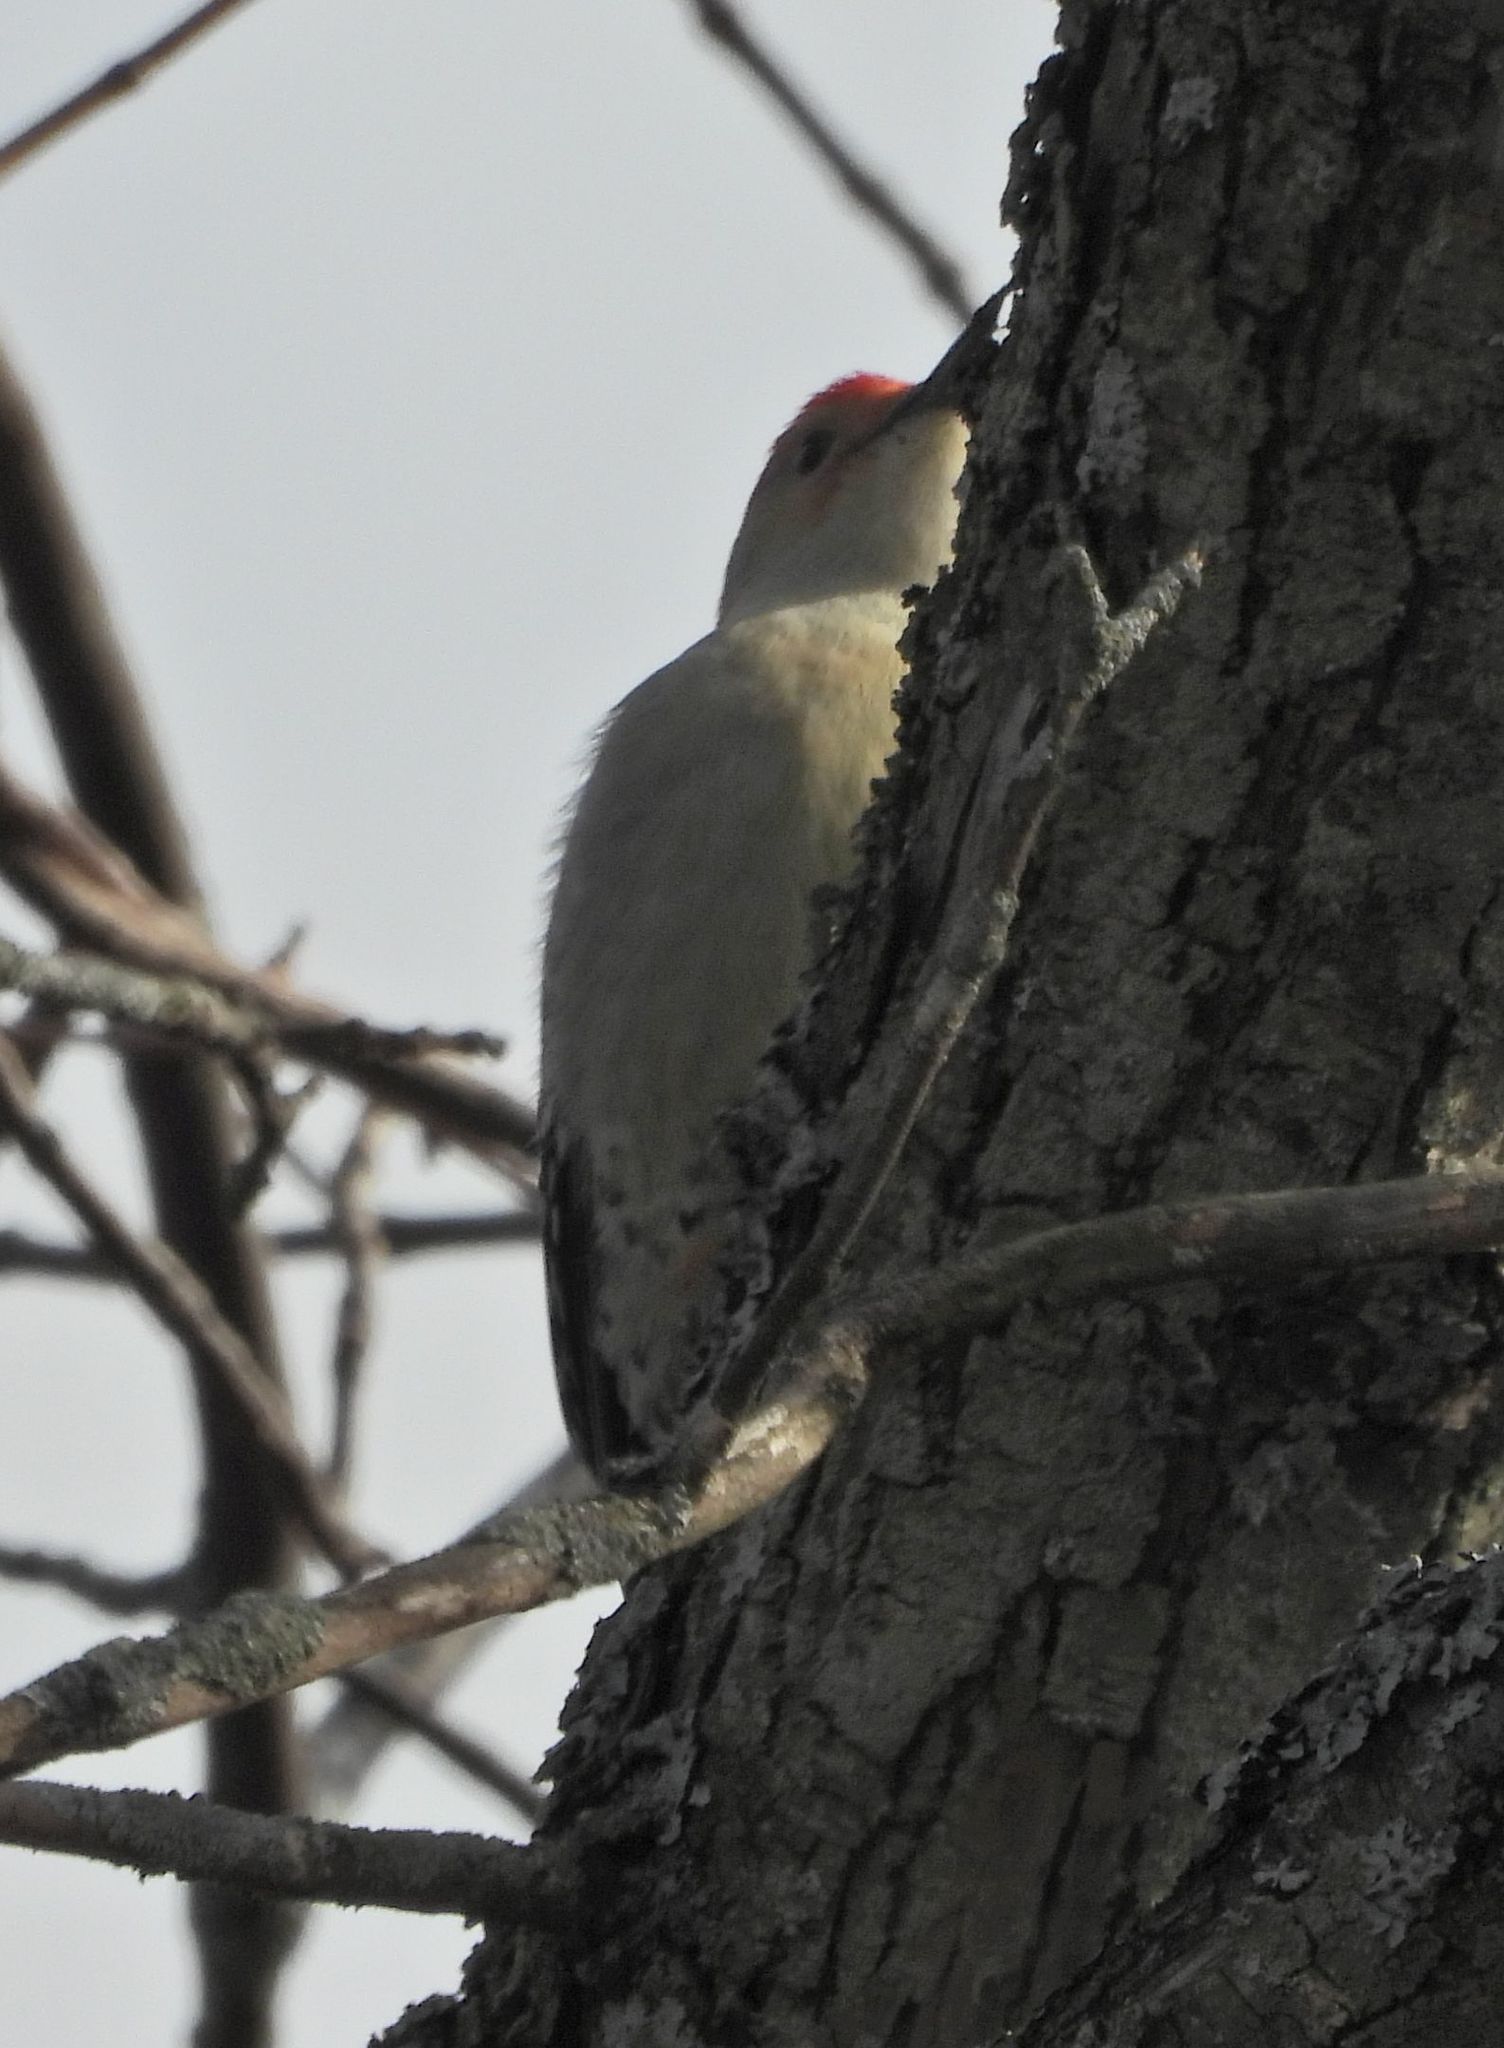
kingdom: Animalia
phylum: Chordata
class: Aves
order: Piciformes
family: Picidae
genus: Melanerpes
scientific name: Melanerpes carolinus
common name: Red-bellied woodpecker
